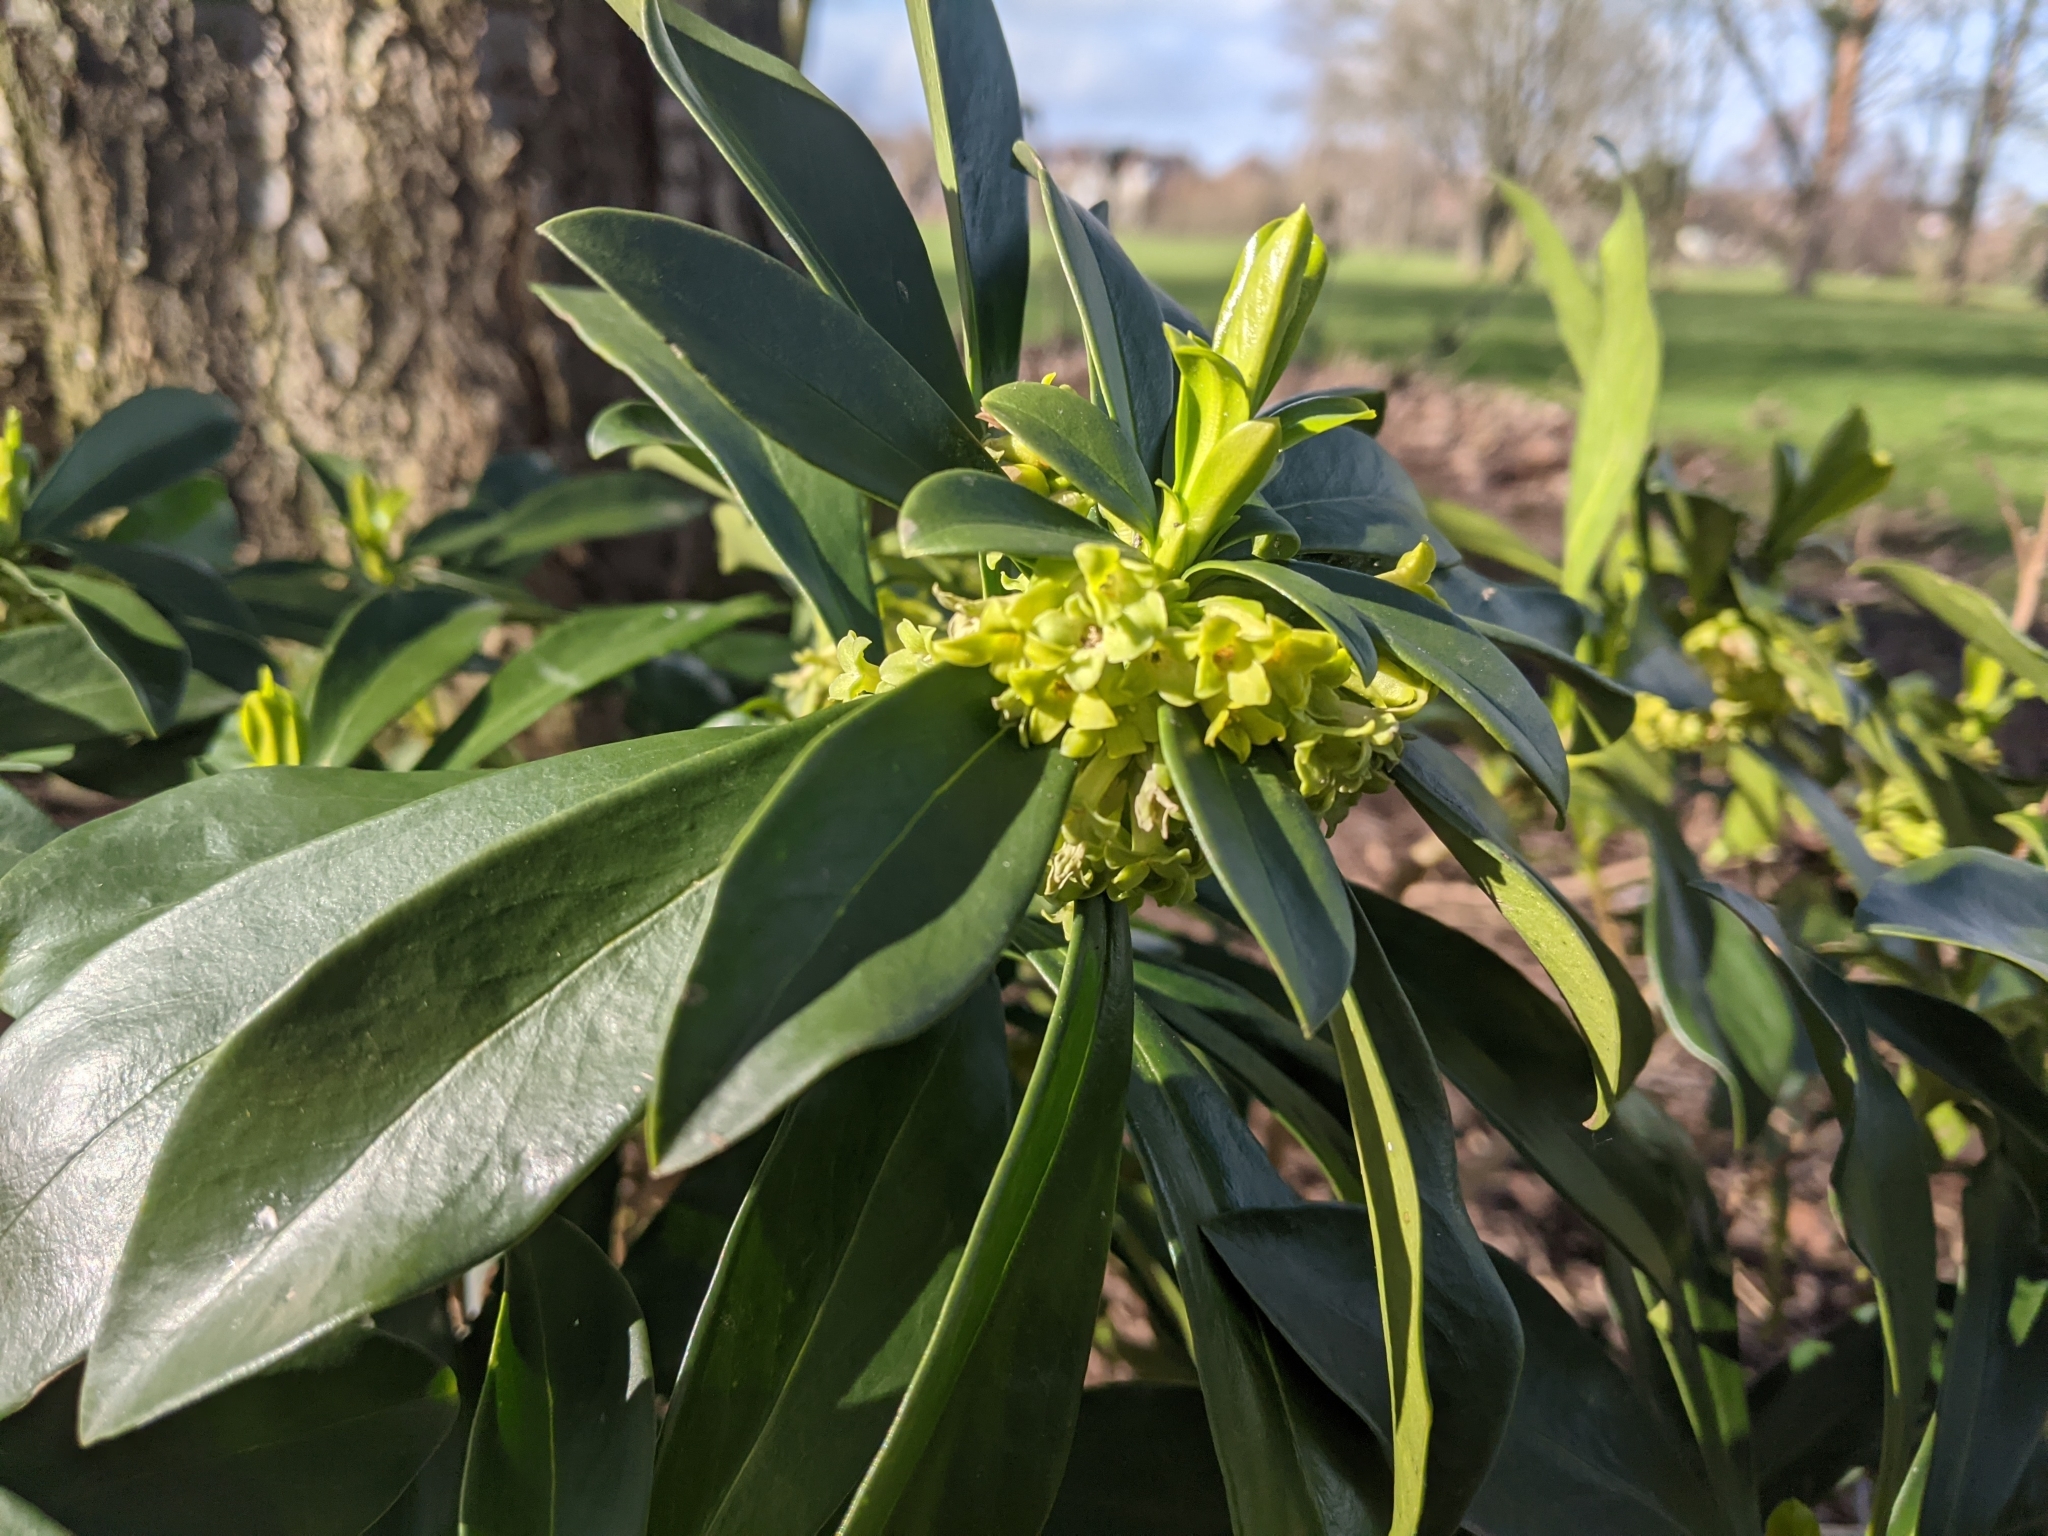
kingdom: Plantae
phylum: Tracheophyta
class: Magnoliopsida
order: Malvales
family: Thymelaeaceae
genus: Daphne
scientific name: Daphne laureola
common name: Spurge-laurel
